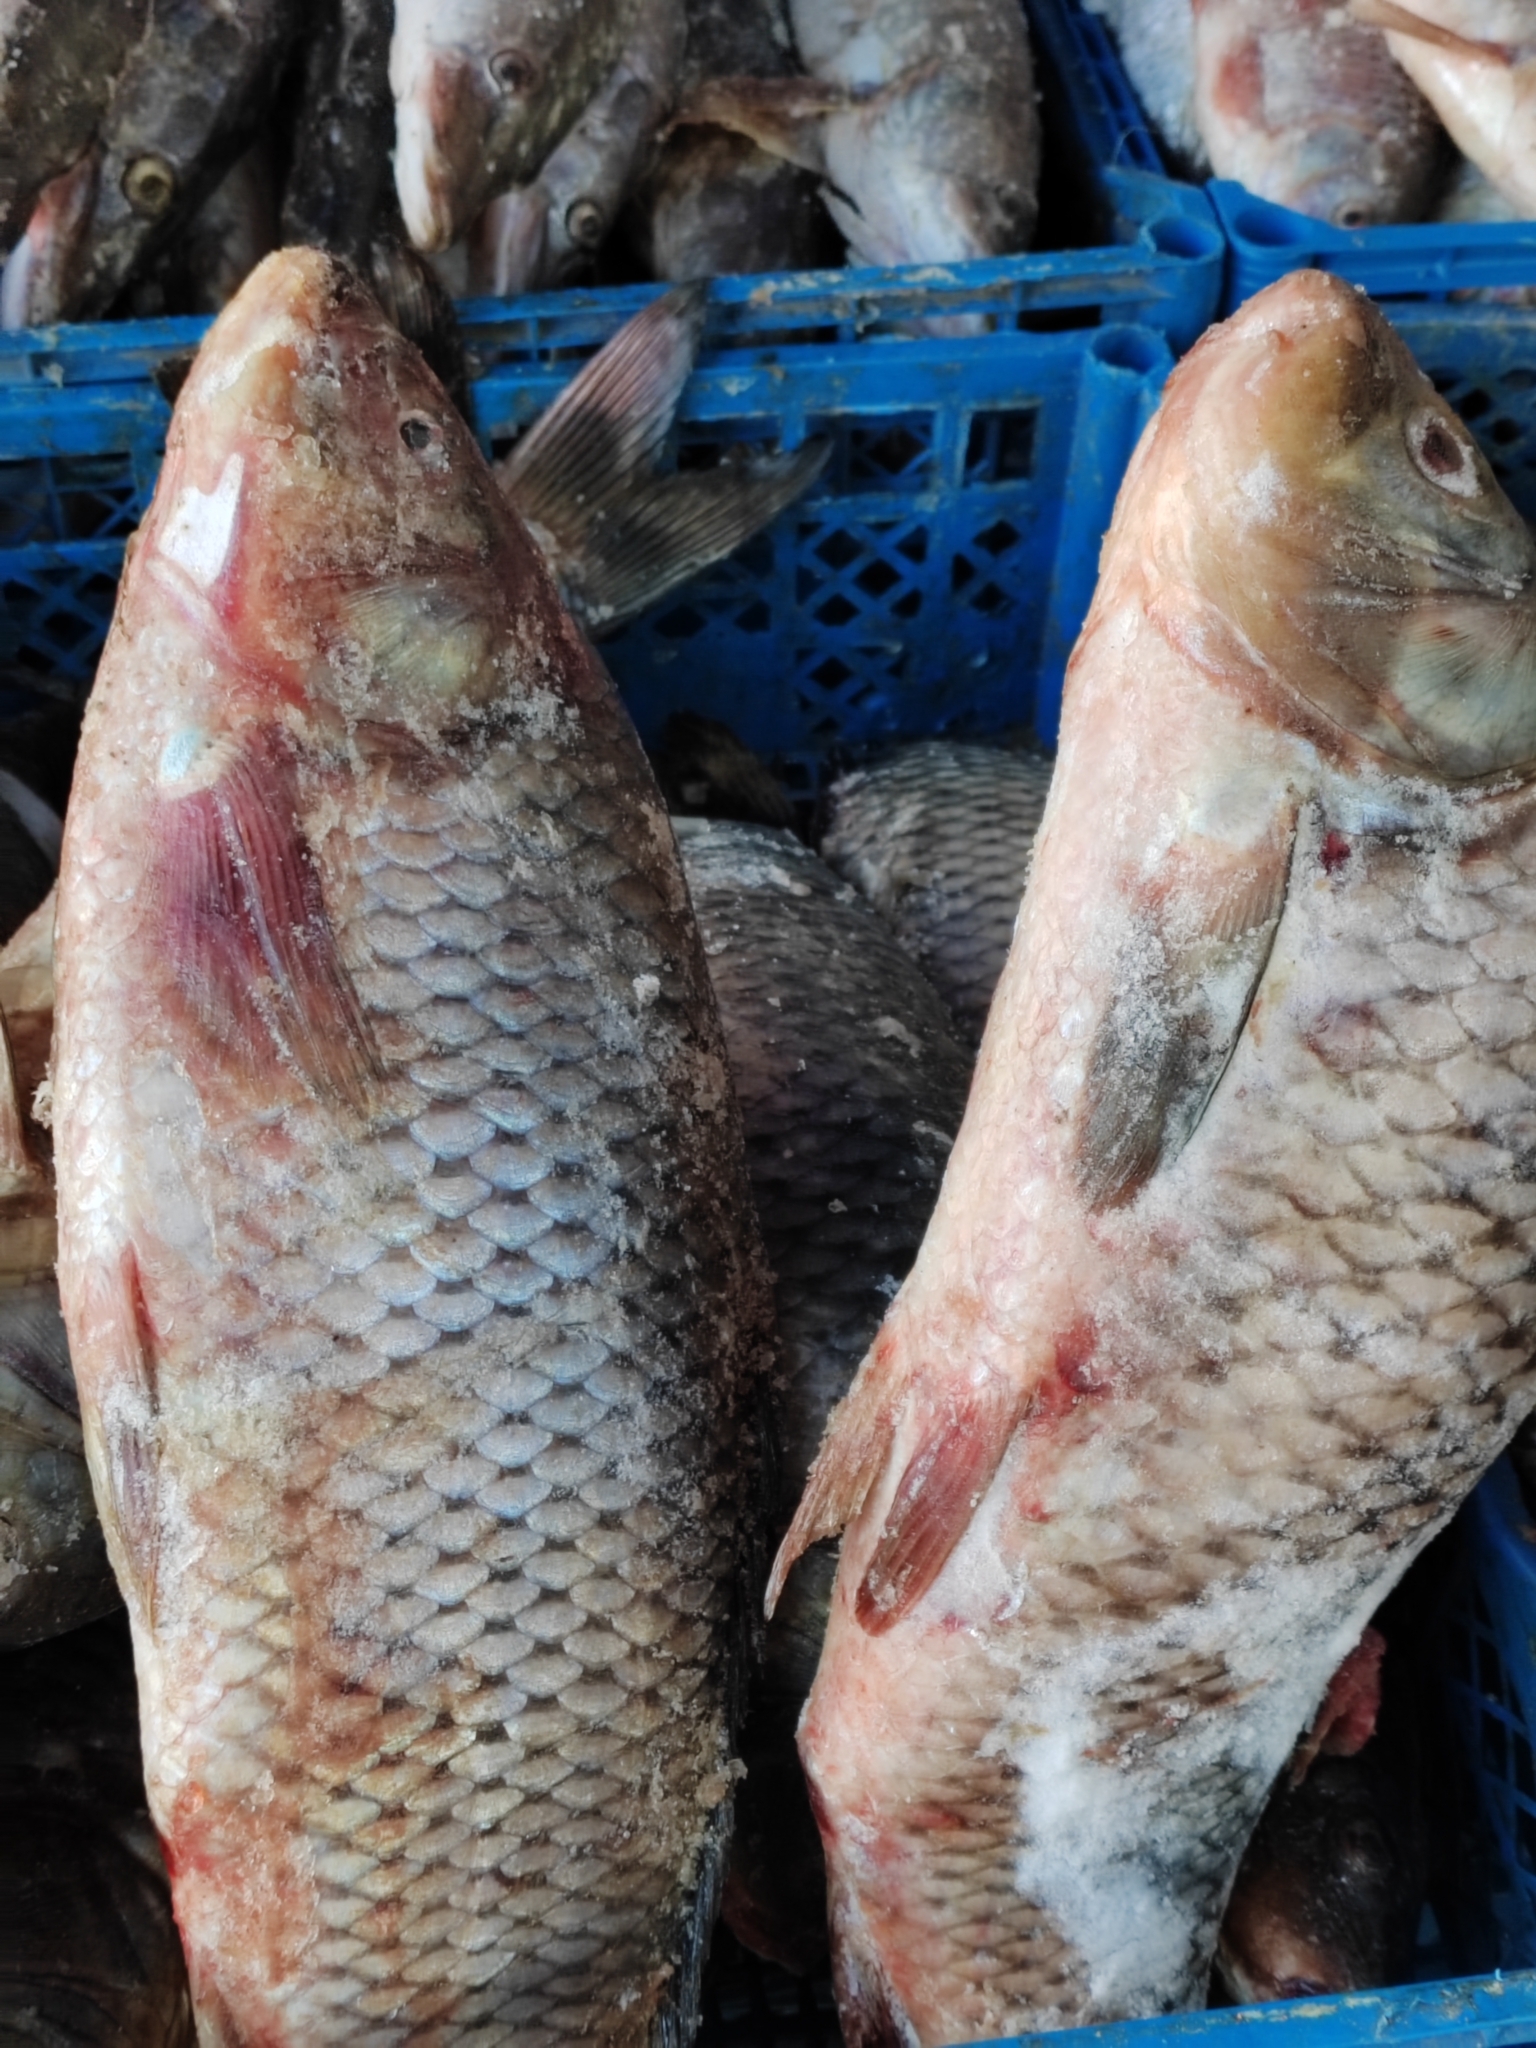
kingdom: Animalia
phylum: Chordata
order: Cypriniformes
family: Cyprinidae
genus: Cyprinus
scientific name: Cyprinus carpio
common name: Common carp
